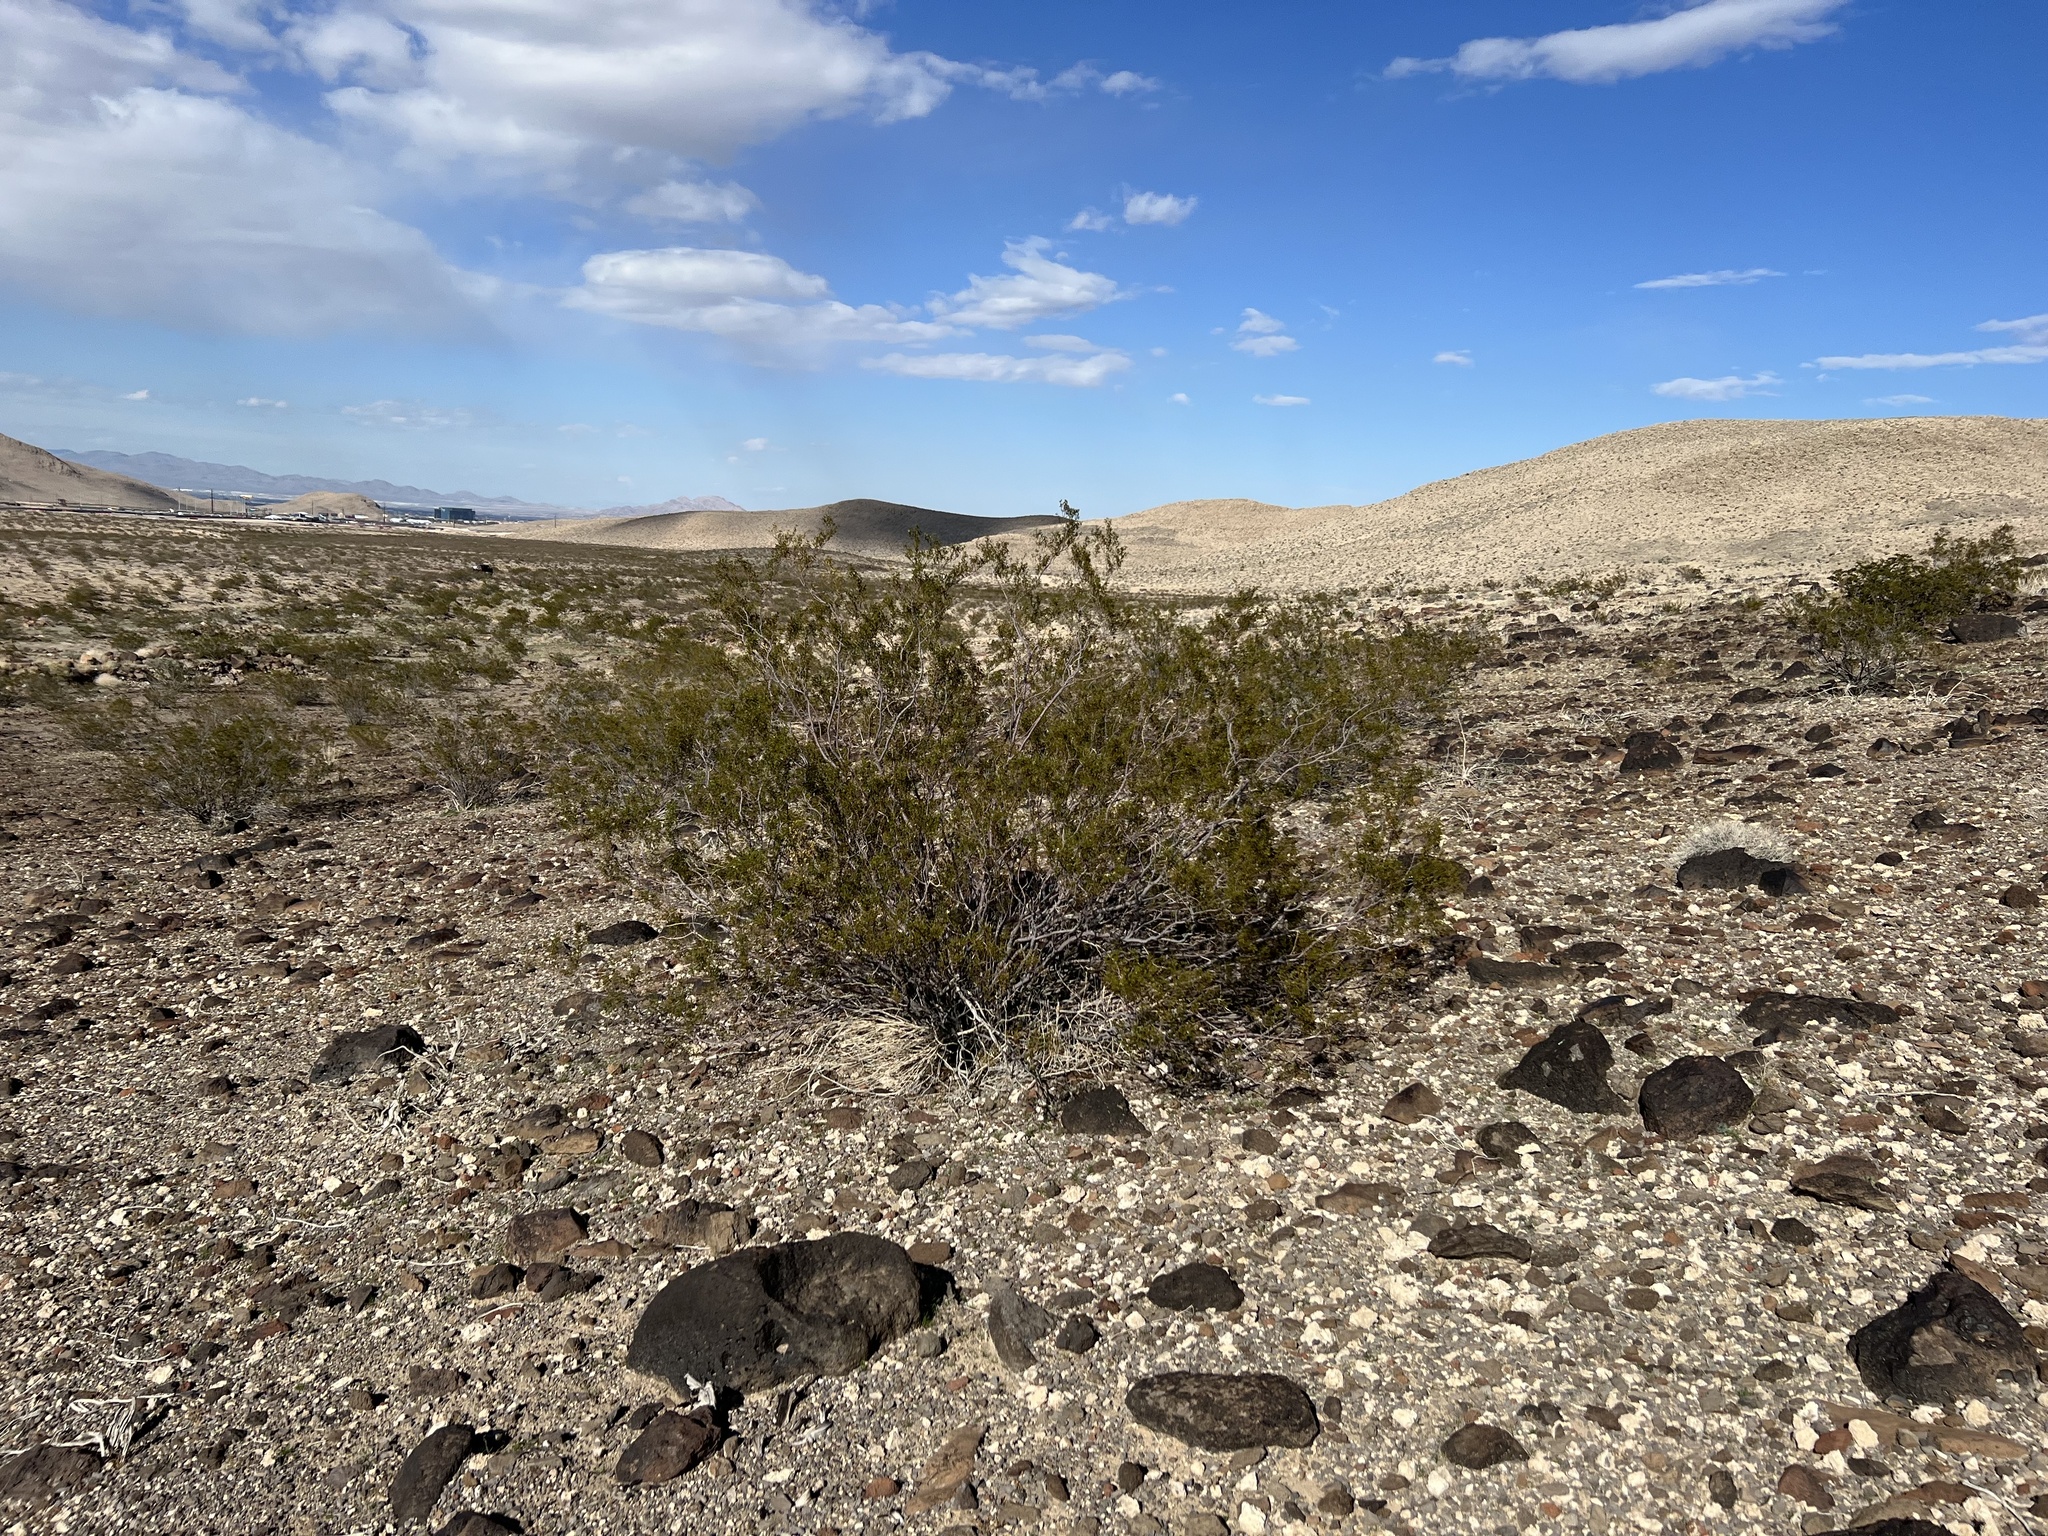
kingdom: Plantae
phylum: Tracheophyta
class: Magnoliopsida
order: Zygophyllales
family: Zygophyllaceae
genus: Larrea
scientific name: Larrea tridentata
